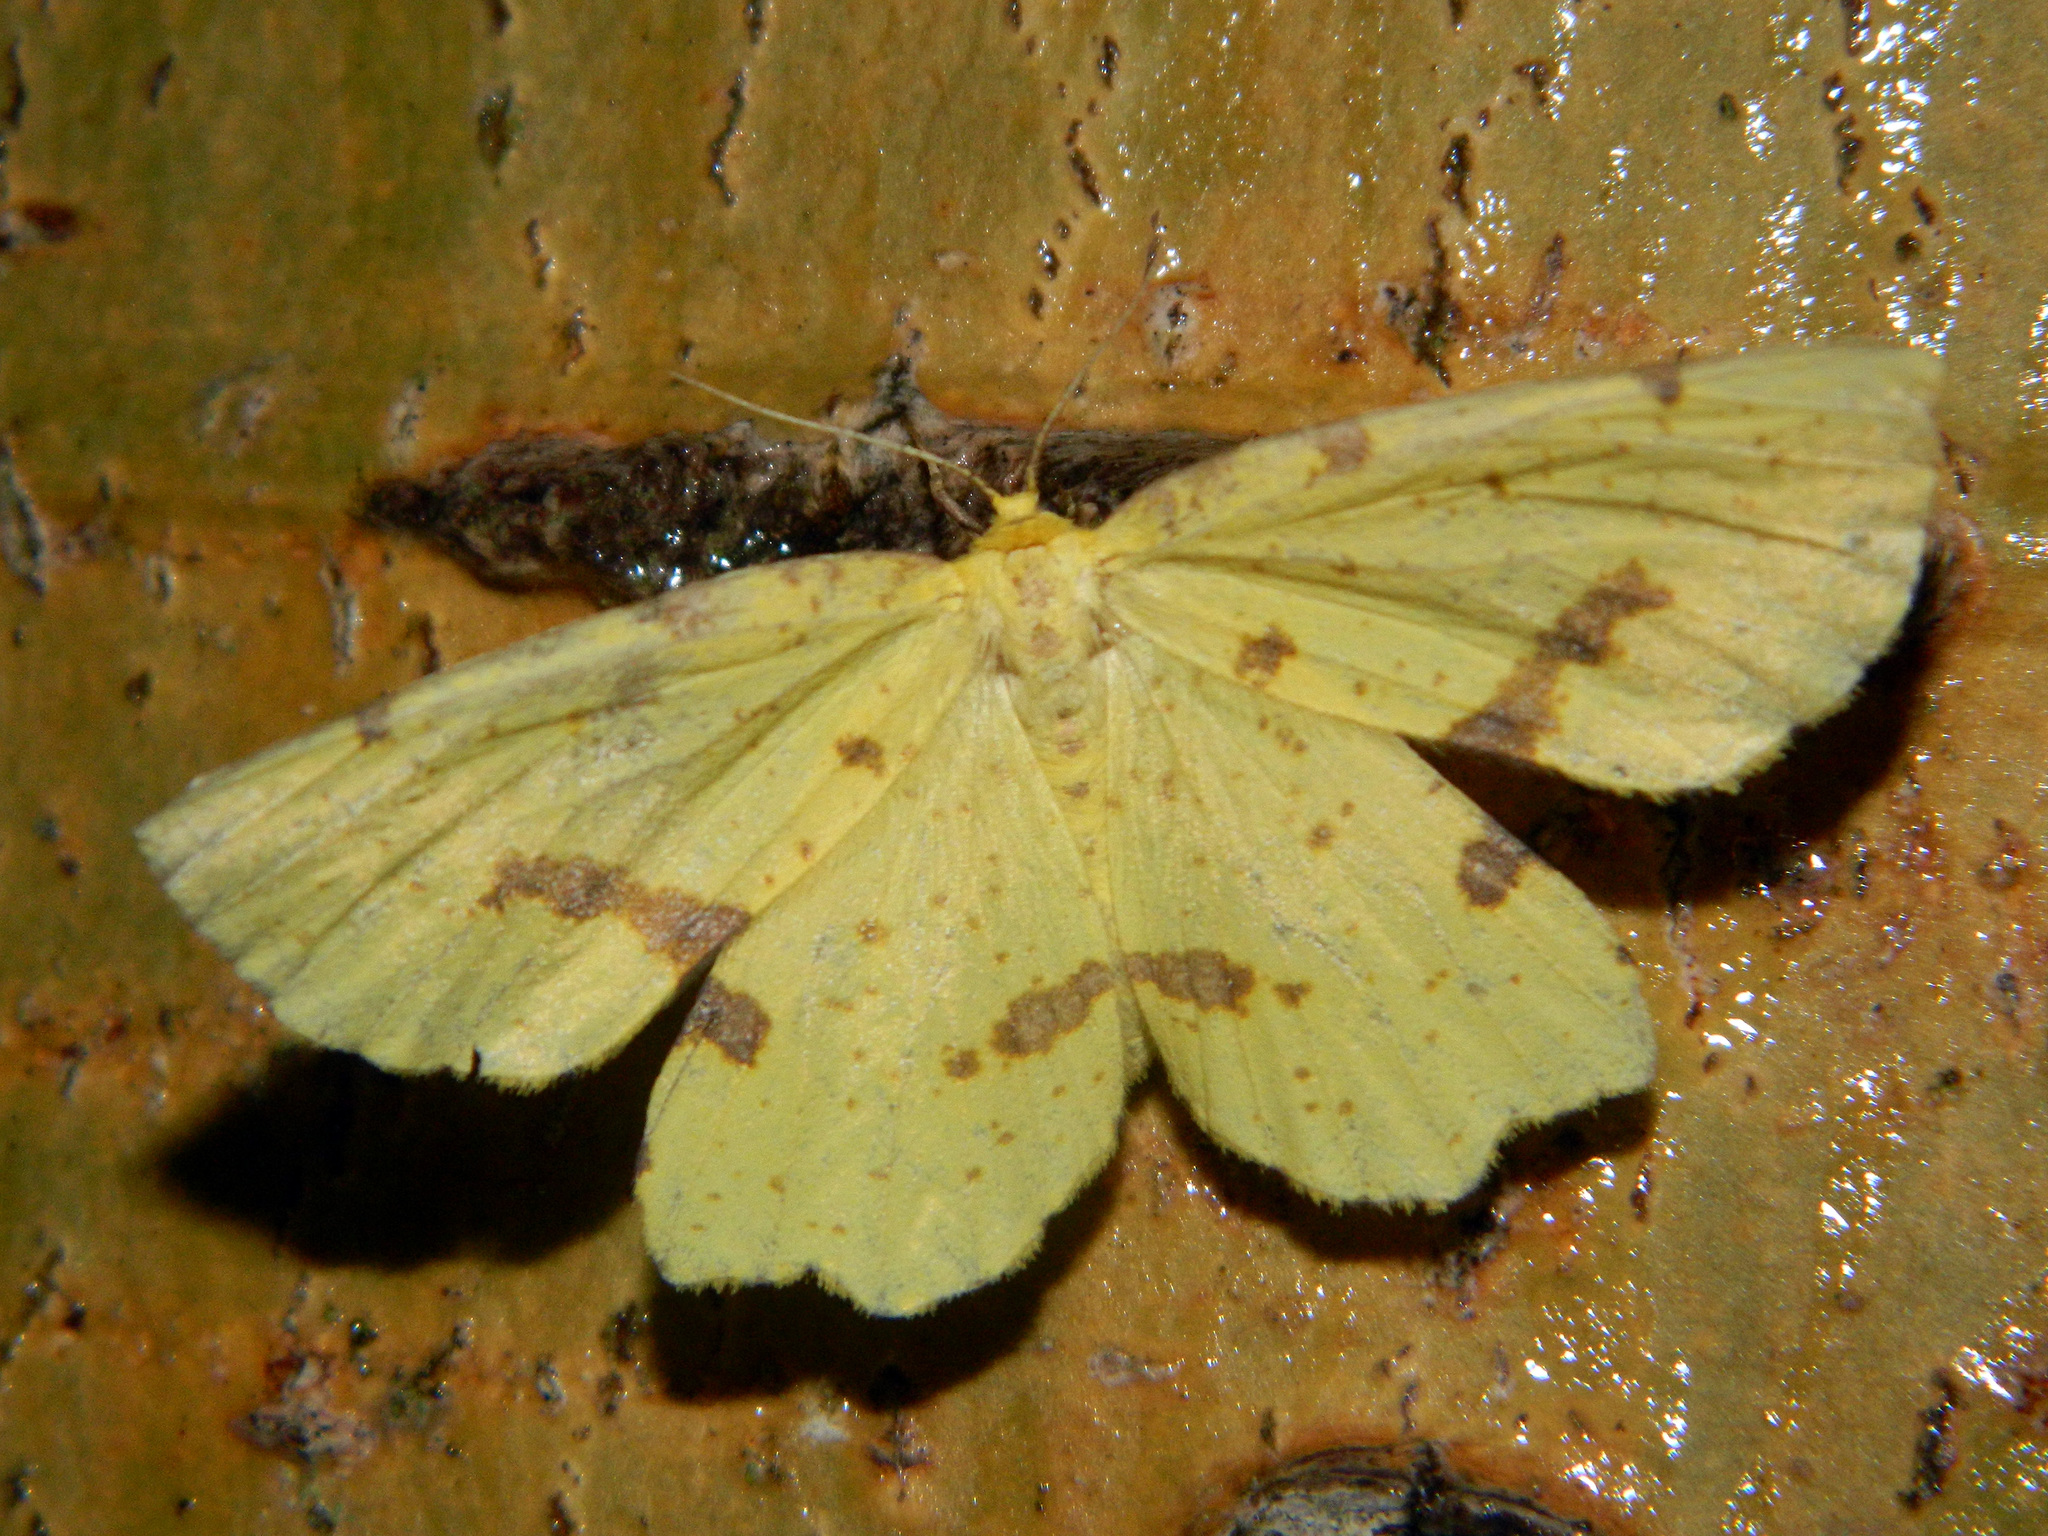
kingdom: Animalia
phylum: Arthropoda
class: Insecta
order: Lepidoptera
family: Geometridae
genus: Xanthotype
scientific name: Xanthotype
